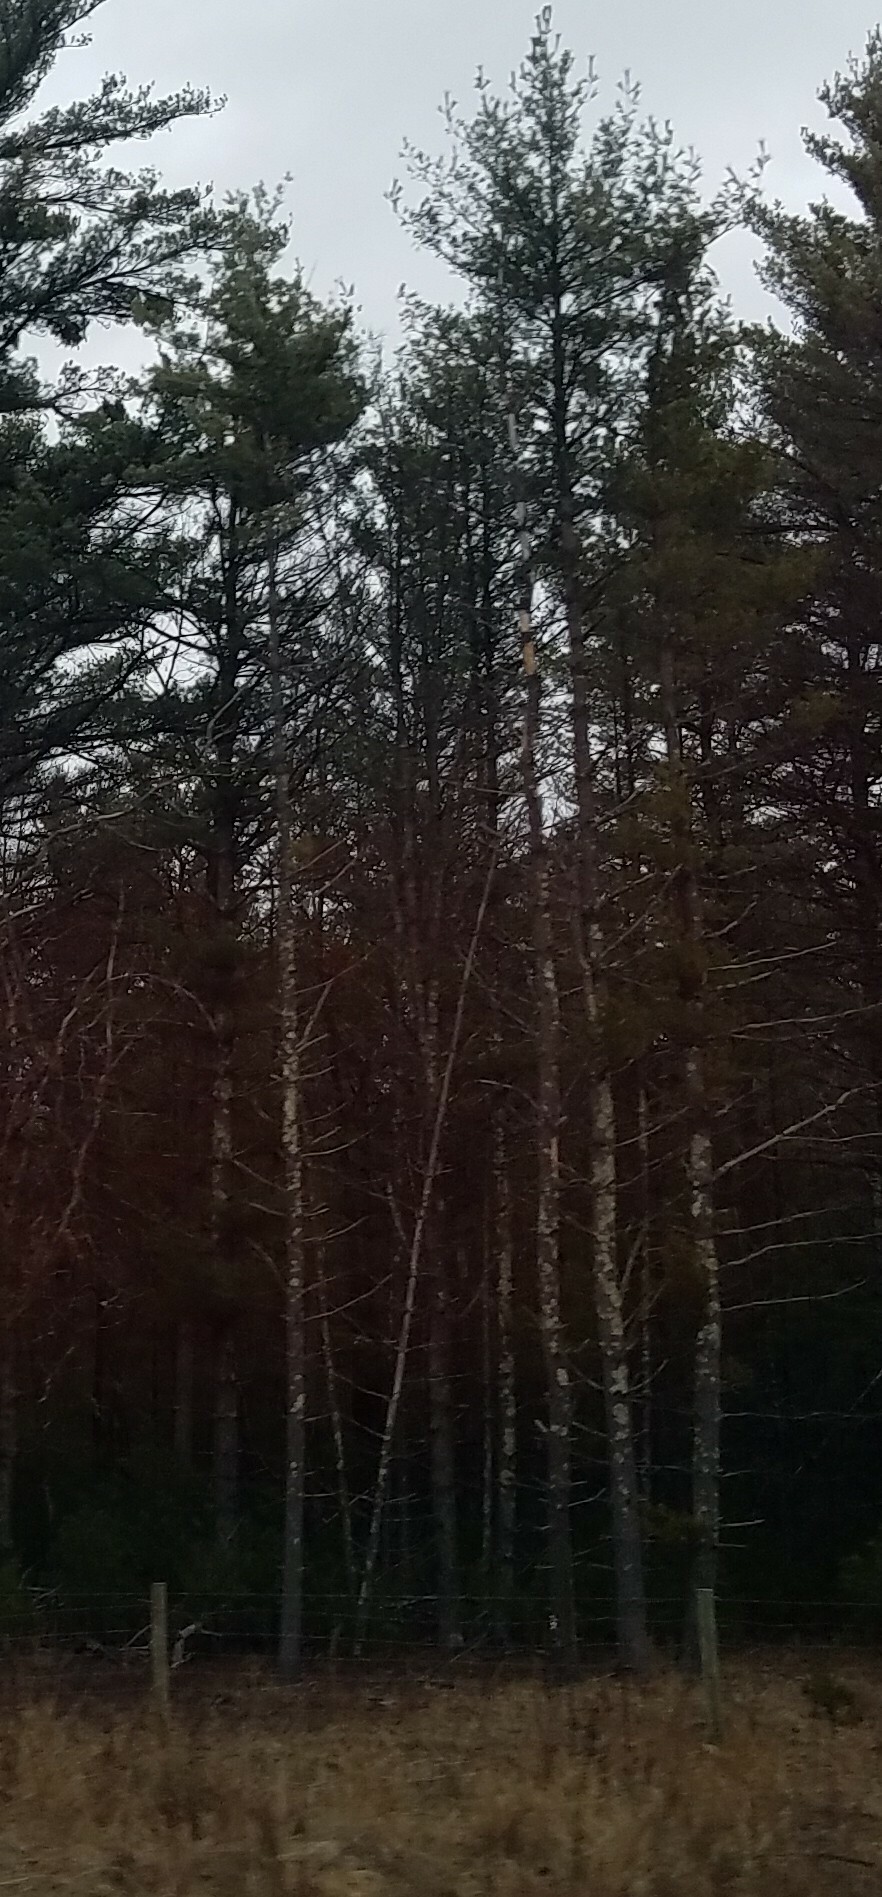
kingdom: Plantae
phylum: Tracheophyta
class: Pinopsida
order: Pinales
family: Pinaceae
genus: Pinus
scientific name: Pinus strobus
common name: Weymouth pine
